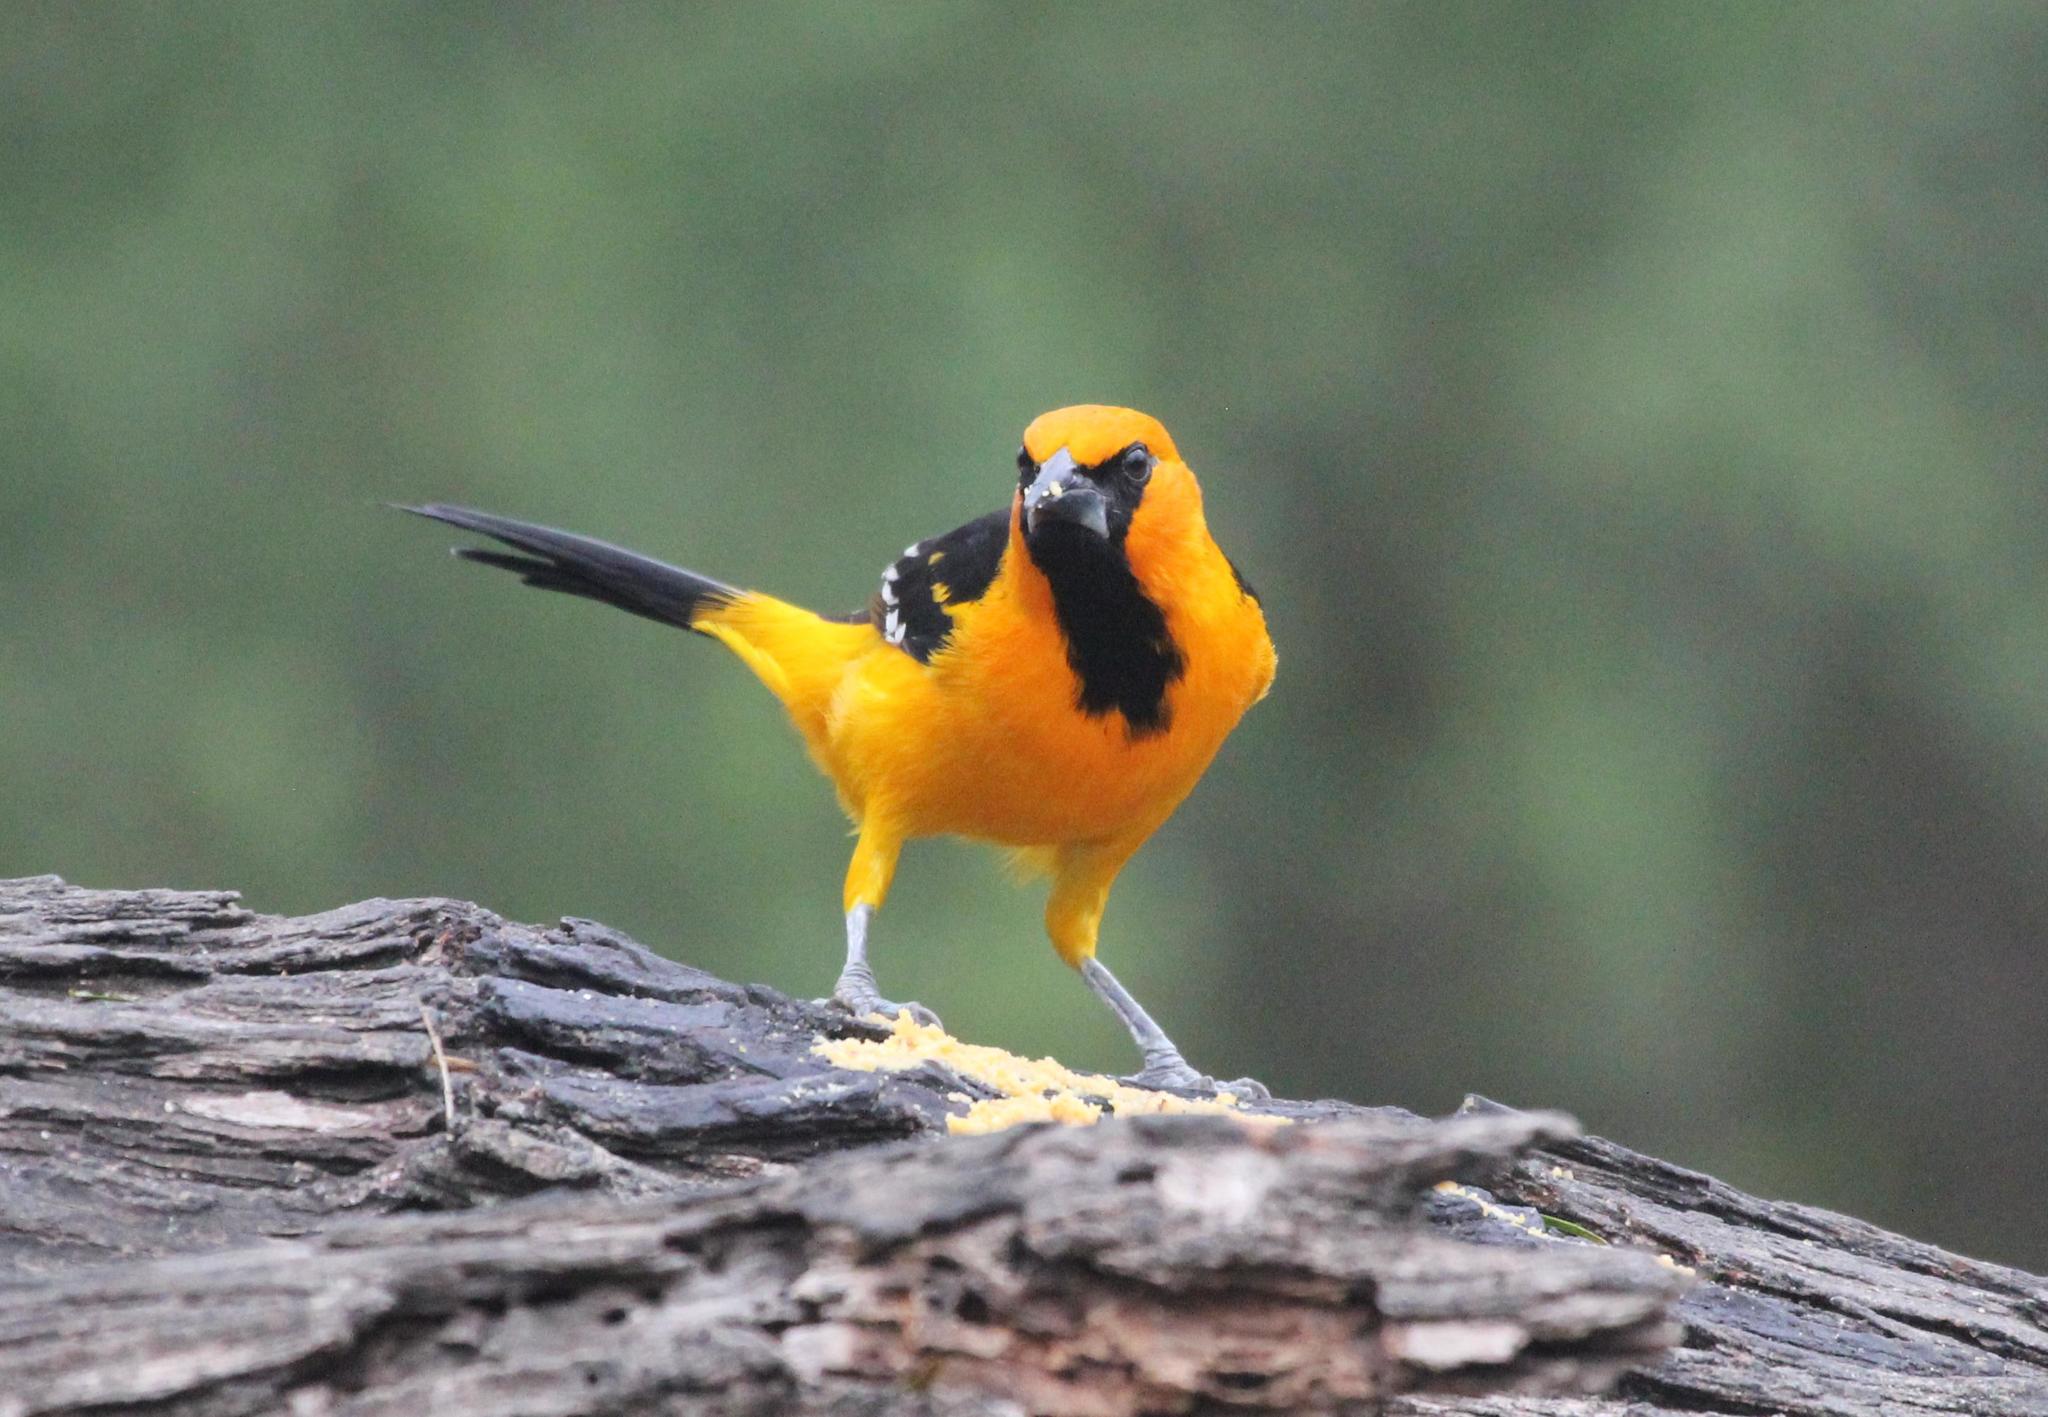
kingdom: Animalia
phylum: Chordata
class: Aves
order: Passeriformes
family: Icteridae
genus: Icterus
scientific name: Icterus gularis
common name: Altamira oriole
